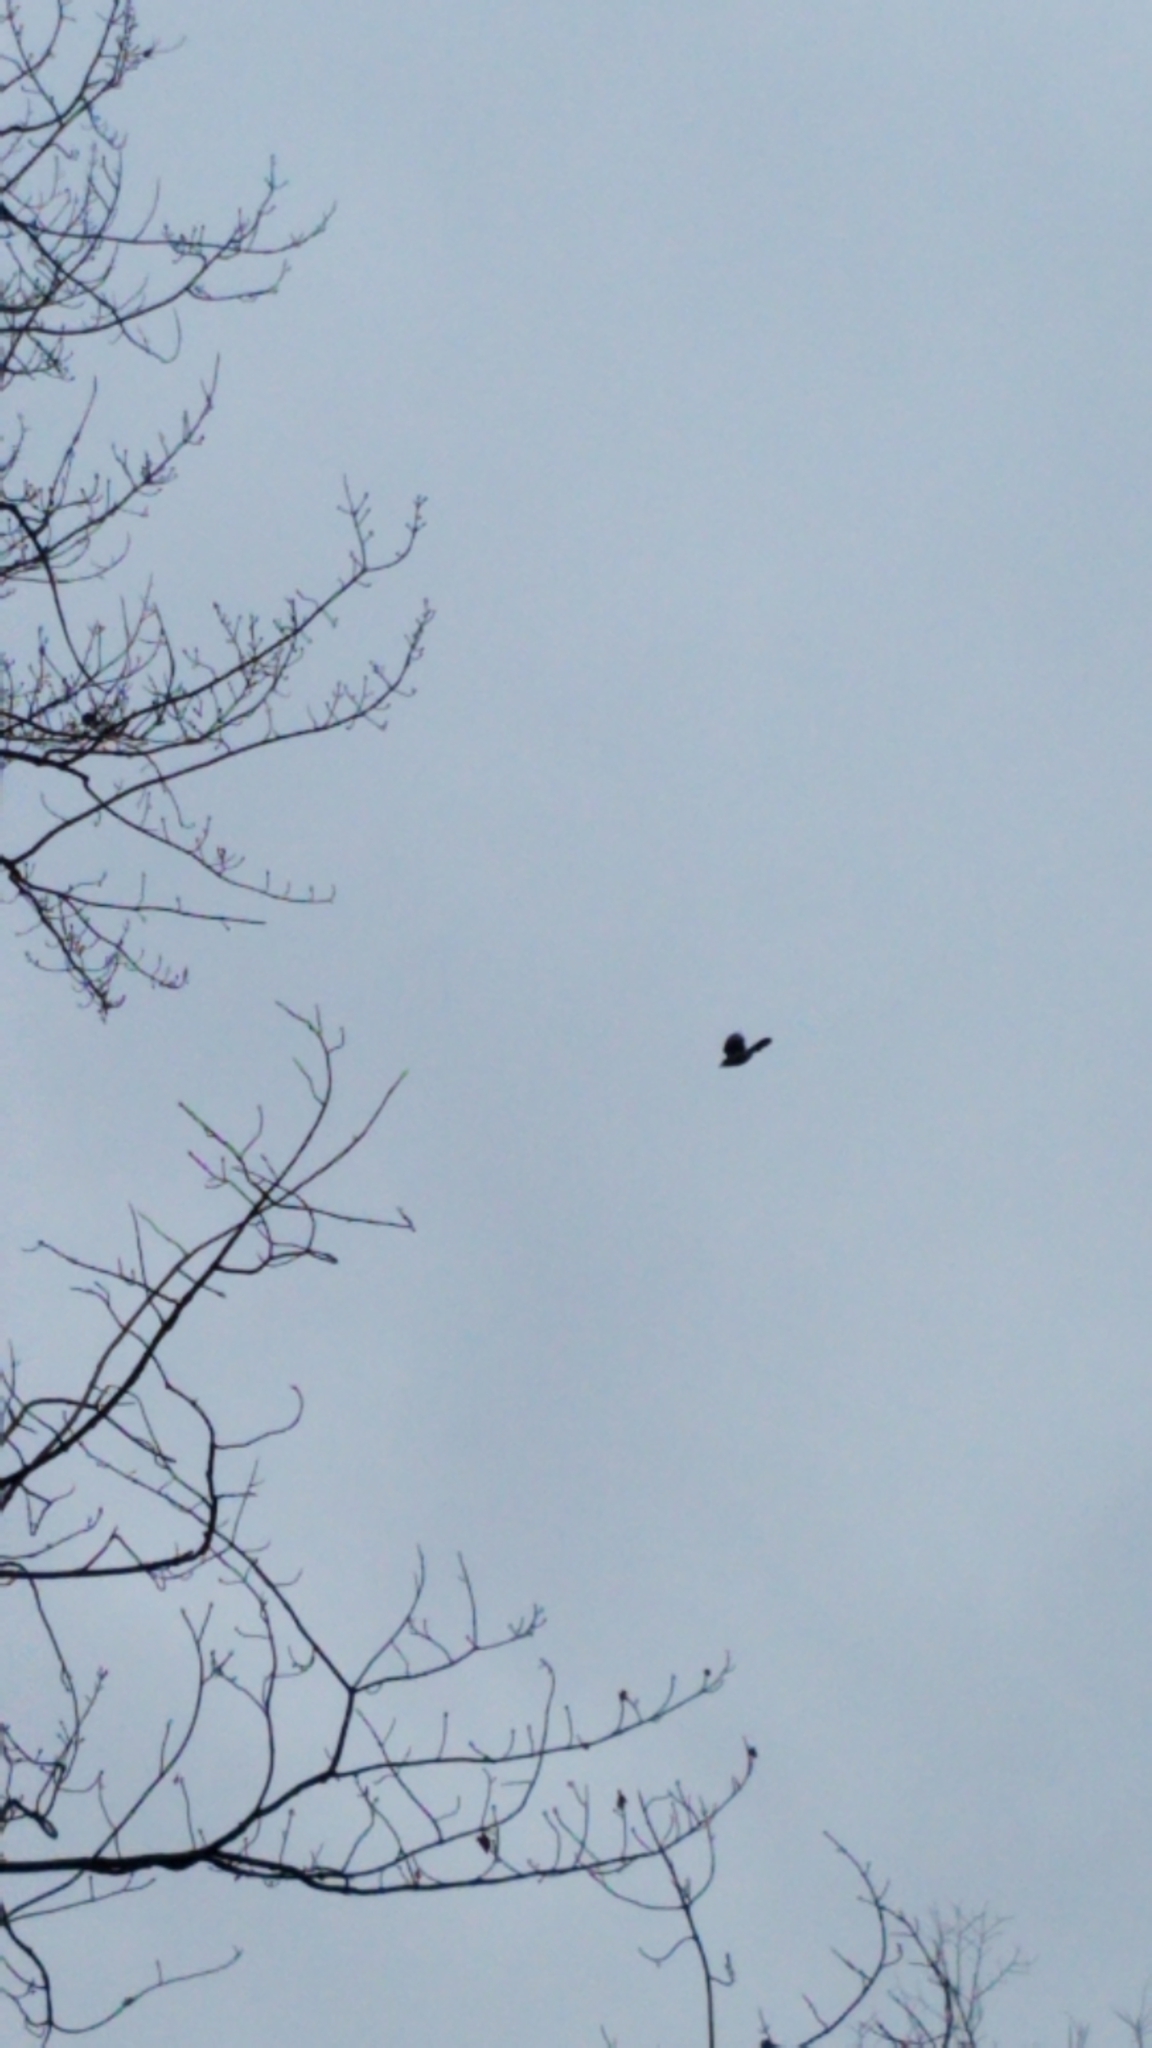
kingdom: Animalia
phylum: Chordata
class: Aves
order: Passeriformes
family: Corvidae
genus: Cyanocitta
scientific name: Cyanocitta cristata
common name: Blue jay
